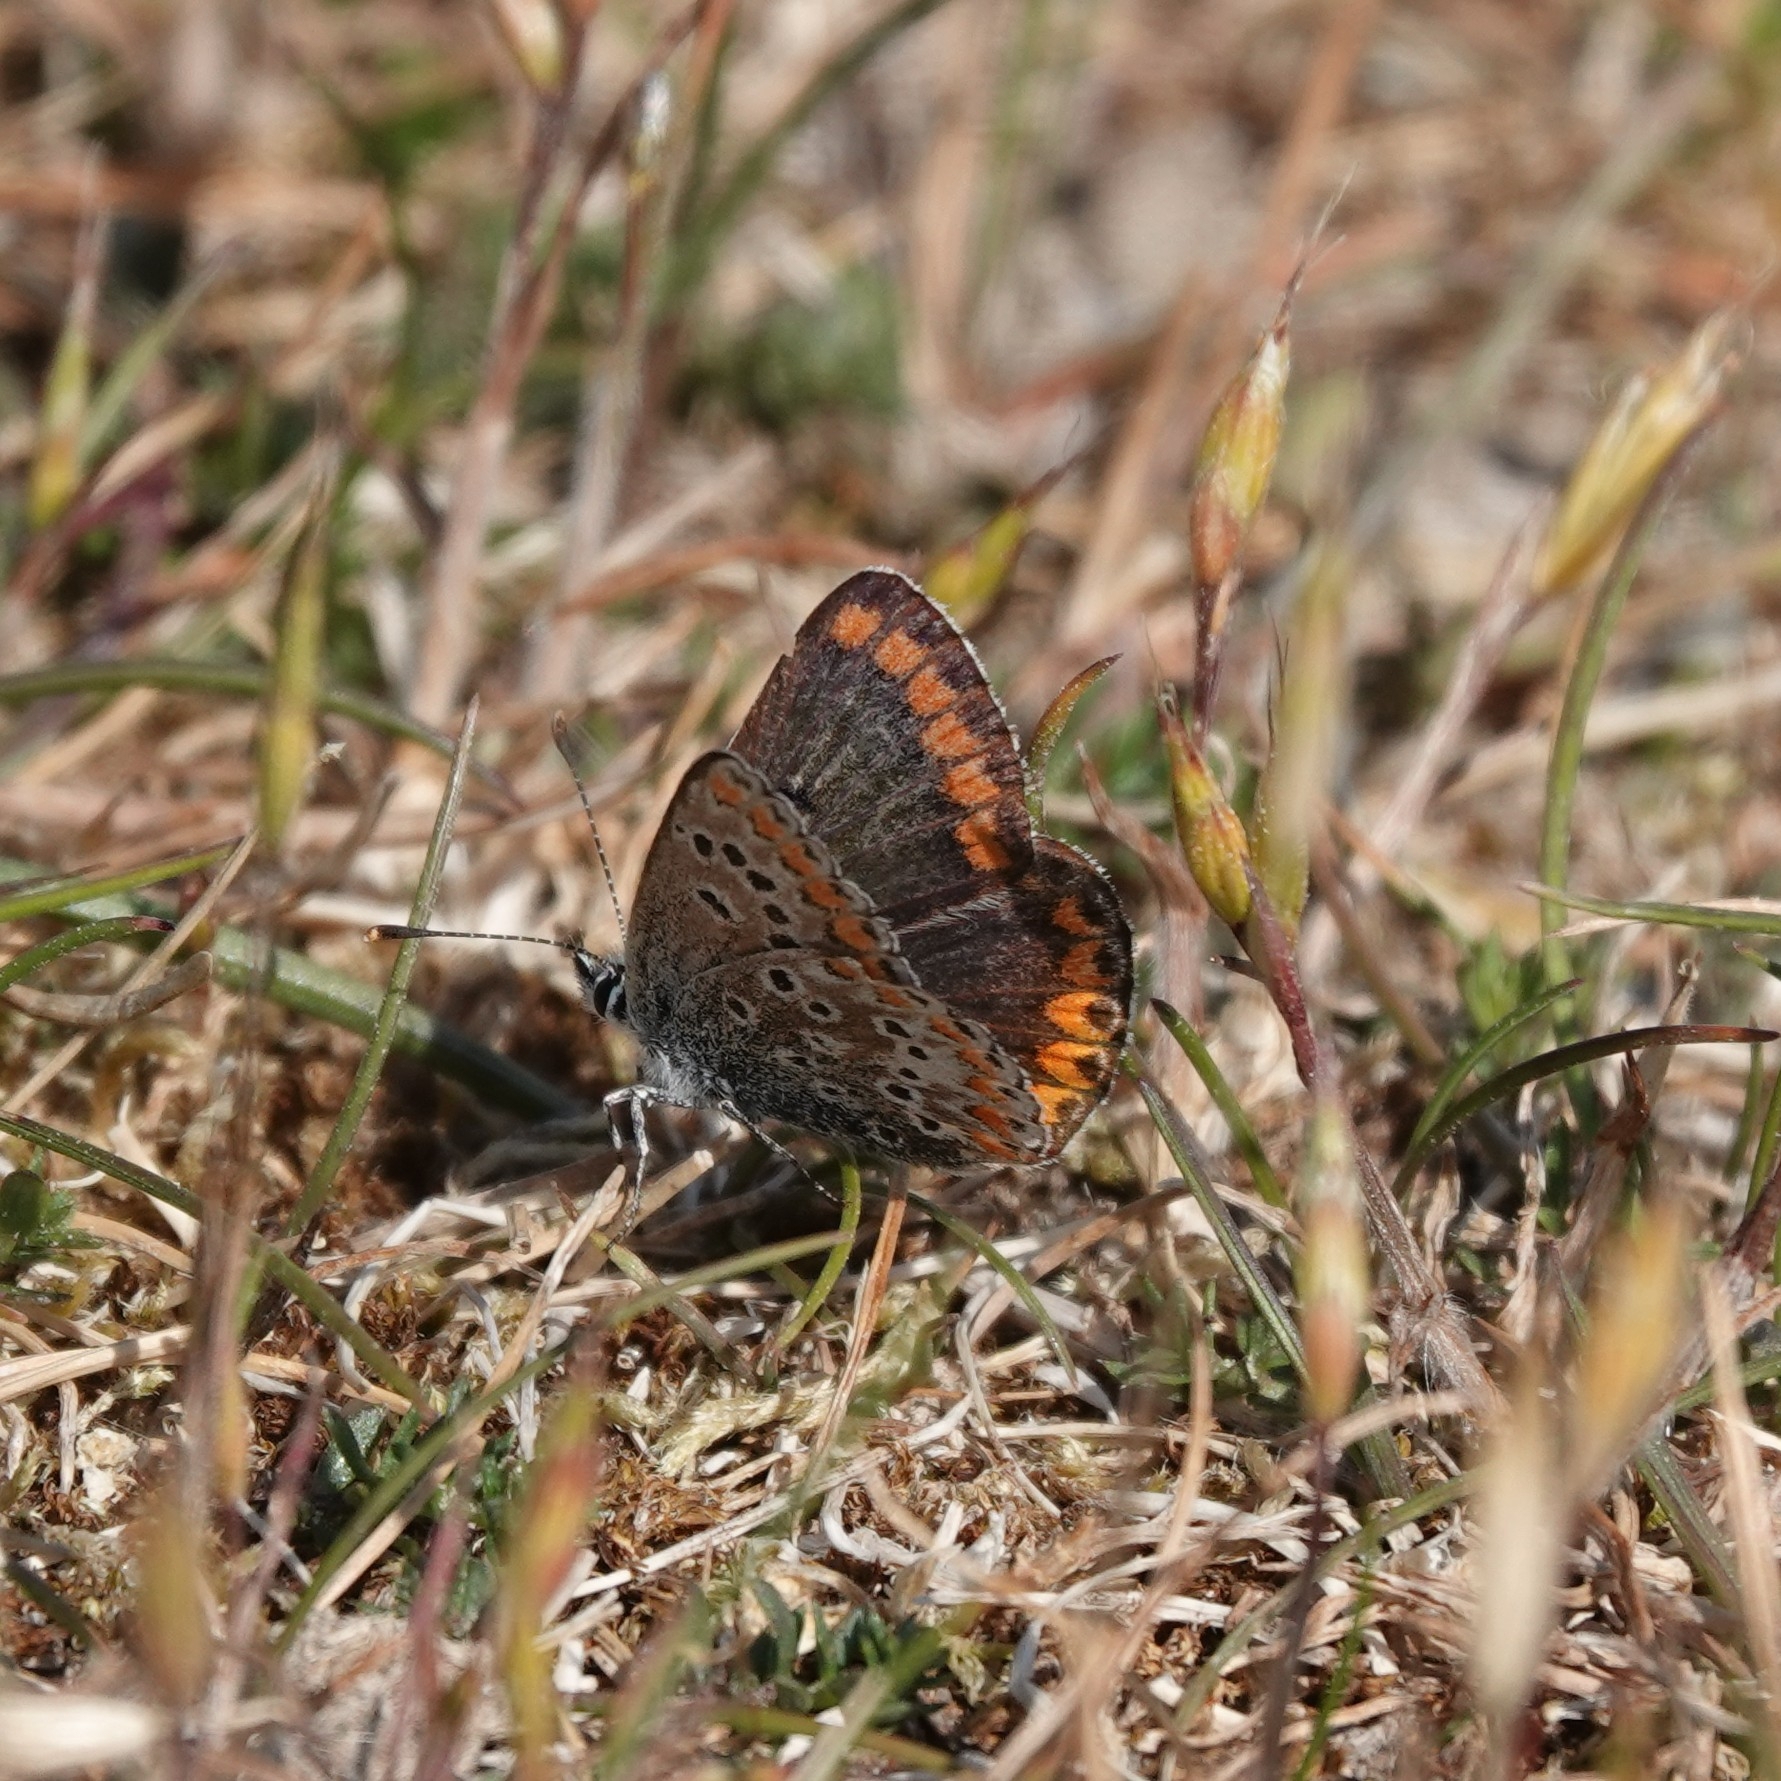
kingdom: Animalia
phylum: Arthropoda
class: Insecta
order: Lepidoptera
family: Lycaenidae
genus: Aricia
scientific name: Aricia agestis
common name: Brown argus
